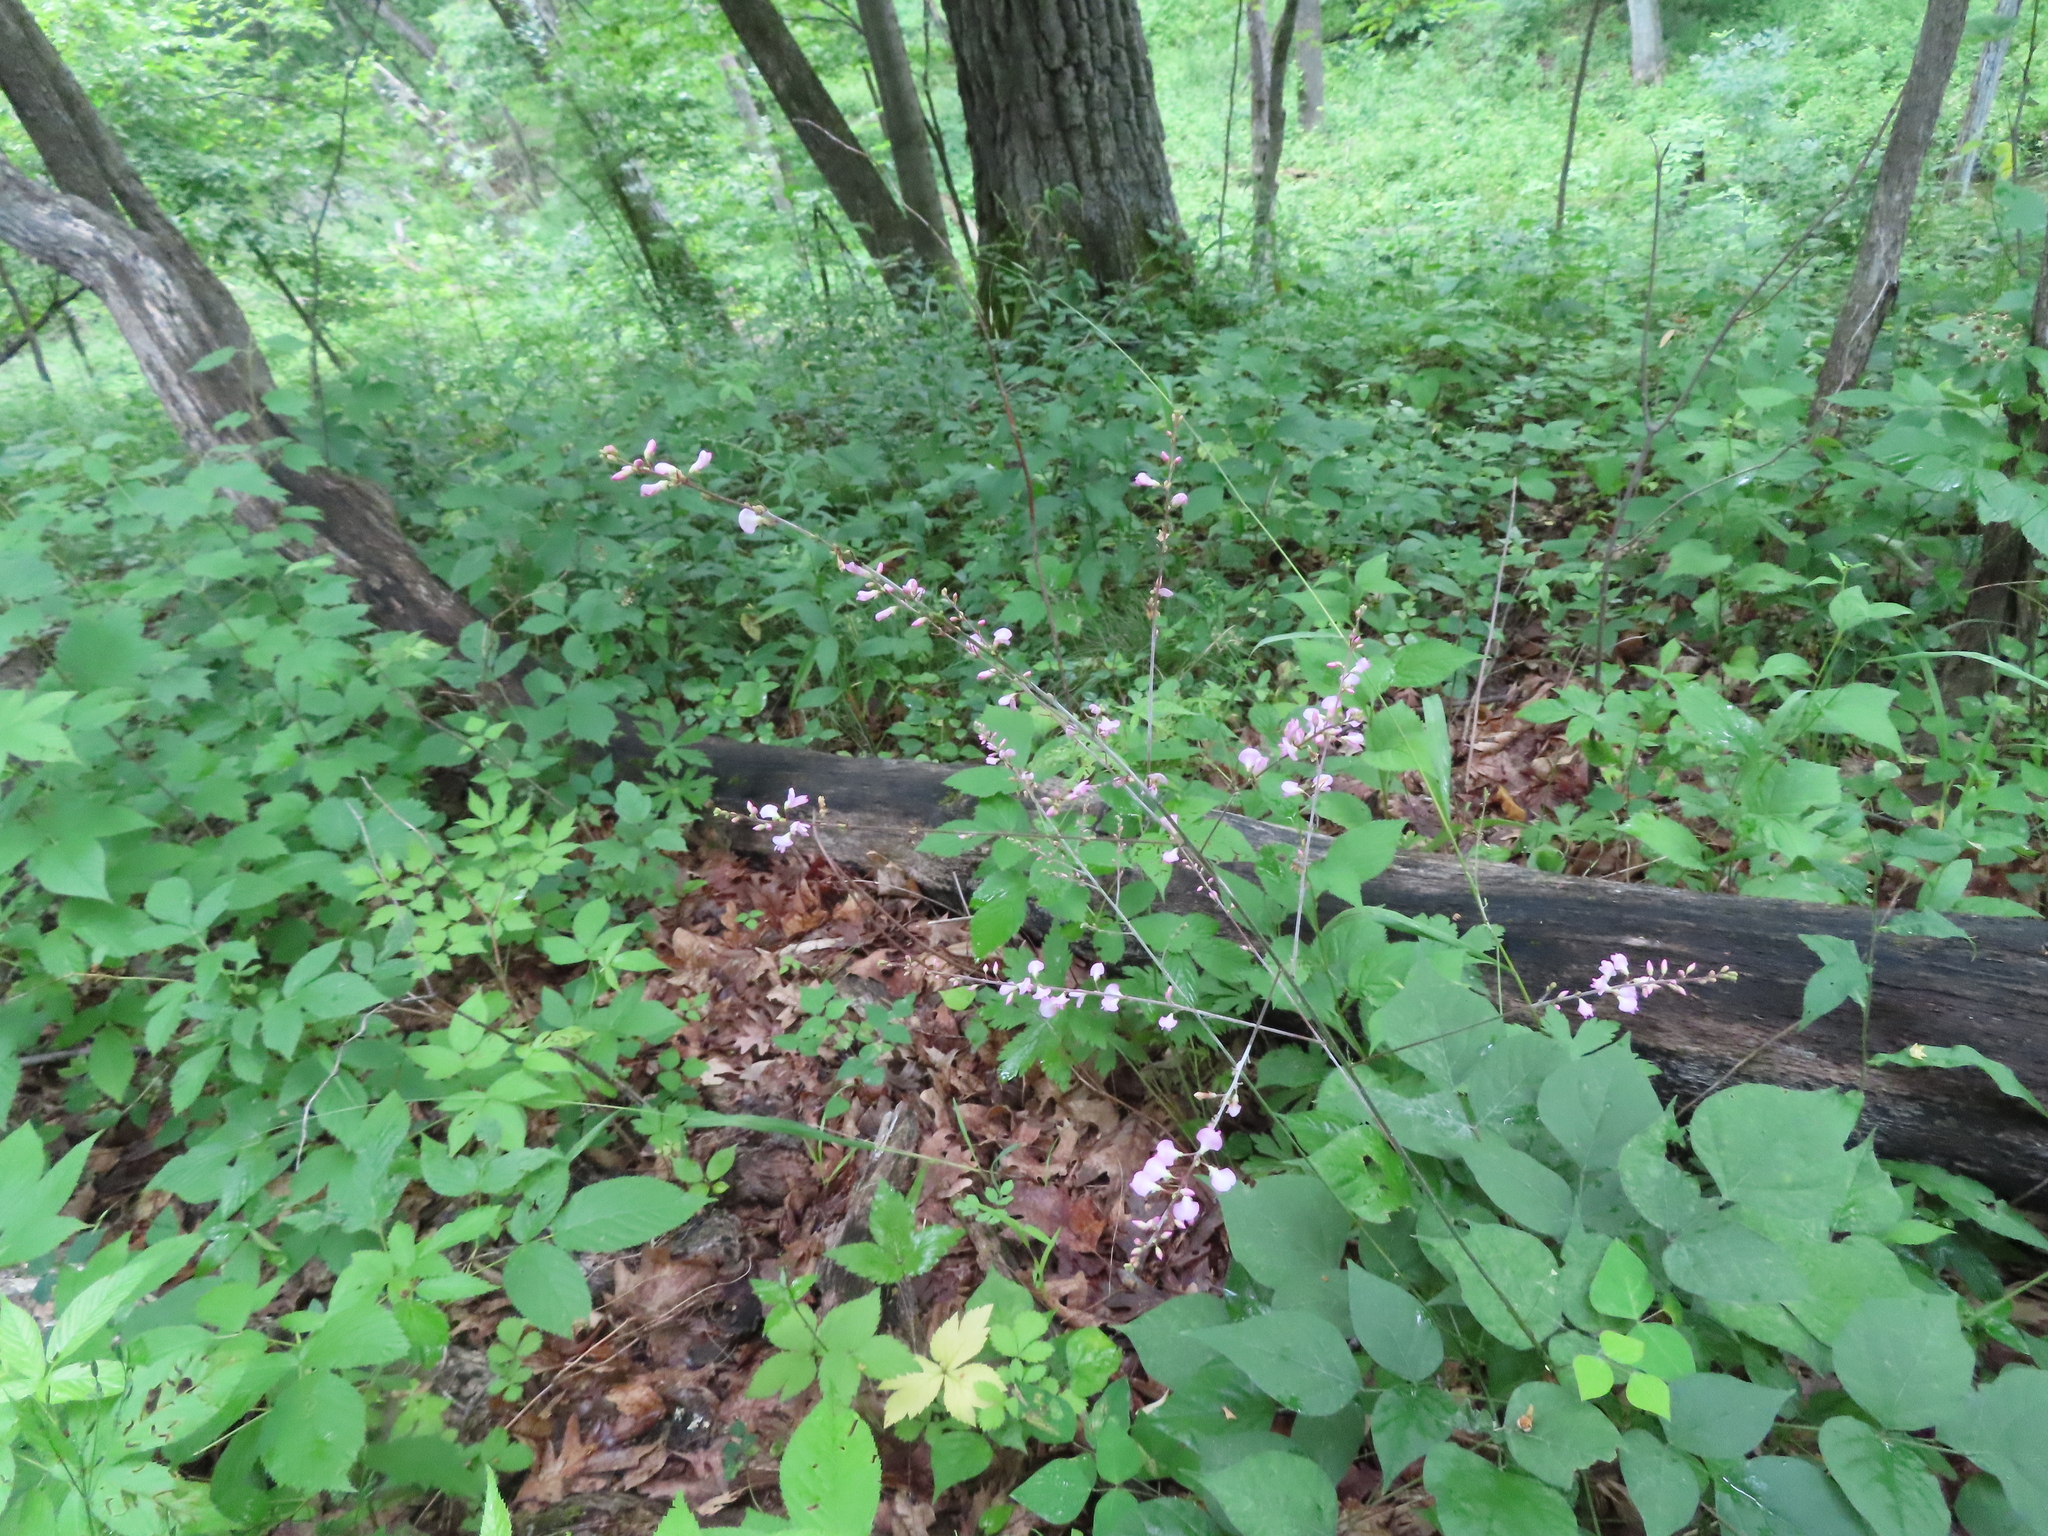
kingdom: Plantae
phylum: Tracheophyta
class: Magnoliopsida
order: Fabales
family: Fabaceae
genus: Hylodesmum
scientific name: Hylodesmum glutinosum
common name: Clustered-leaved tick-trefoil
